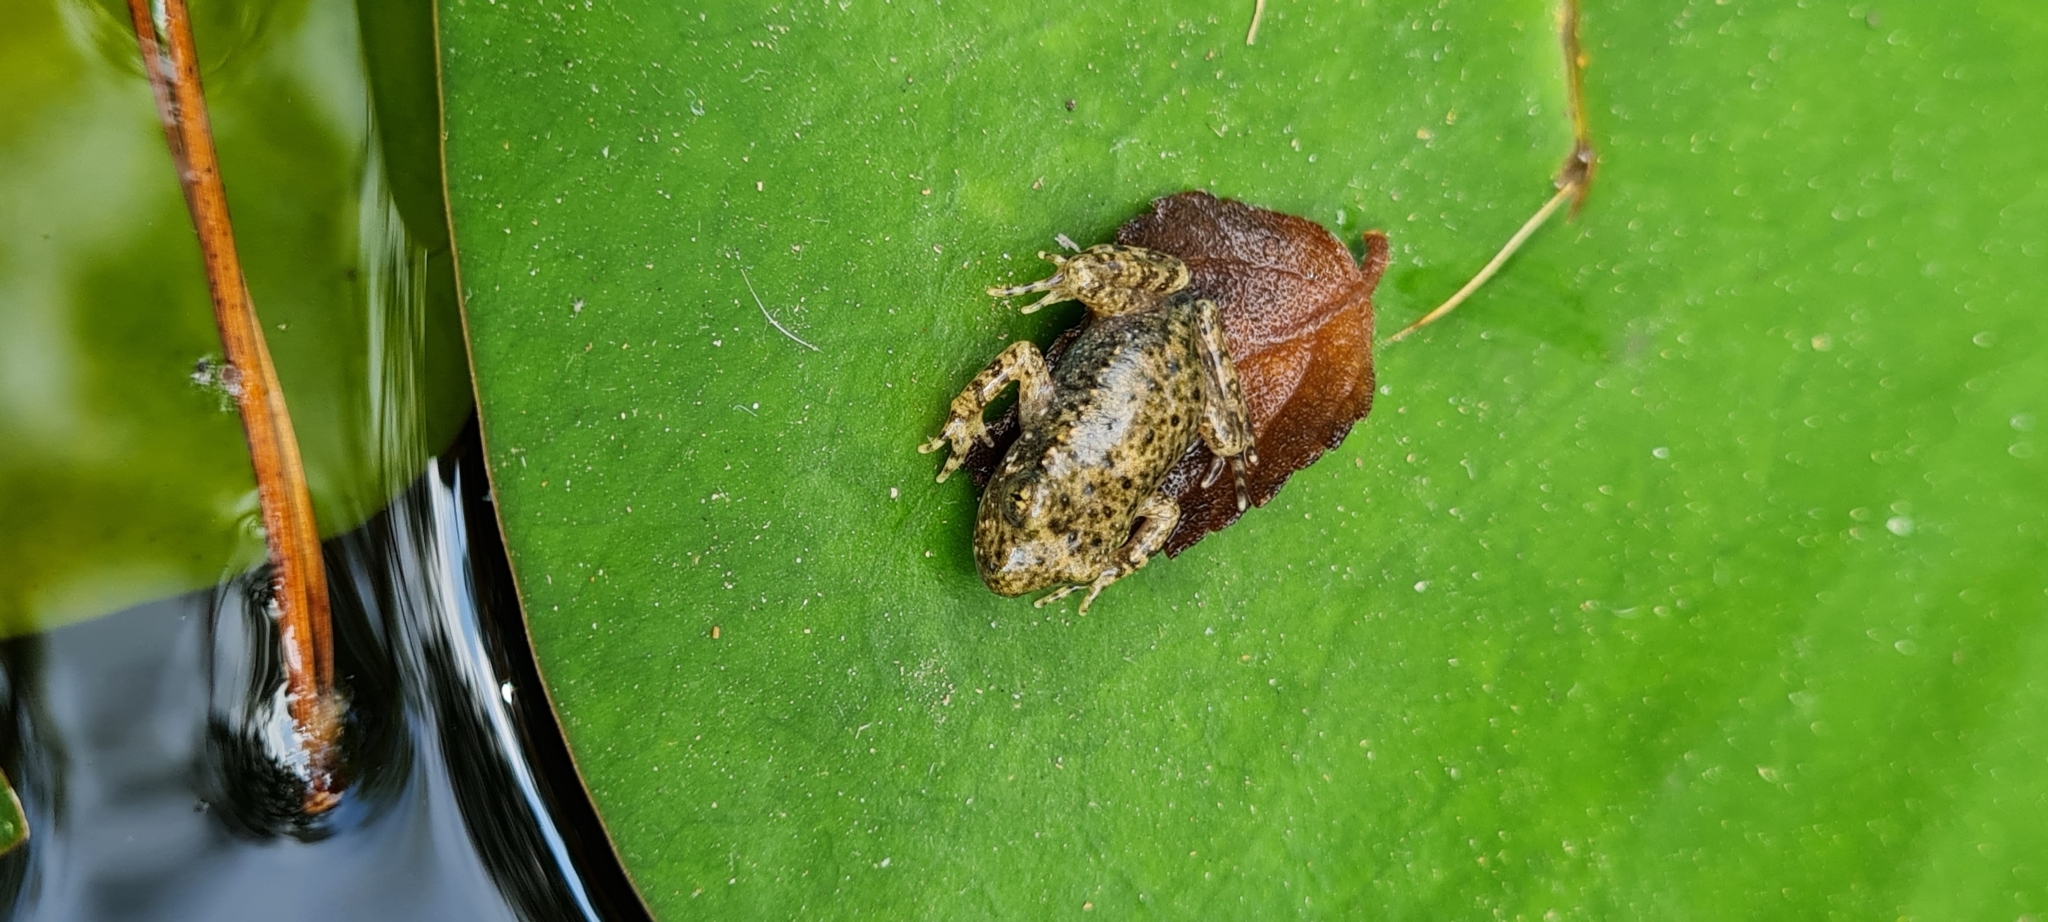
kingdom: Animalia
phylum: Chordata
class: Amphibia
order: Anura
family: Alytidae
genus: Alytes
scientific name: Alytes obstetricans
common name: Midwife toad
